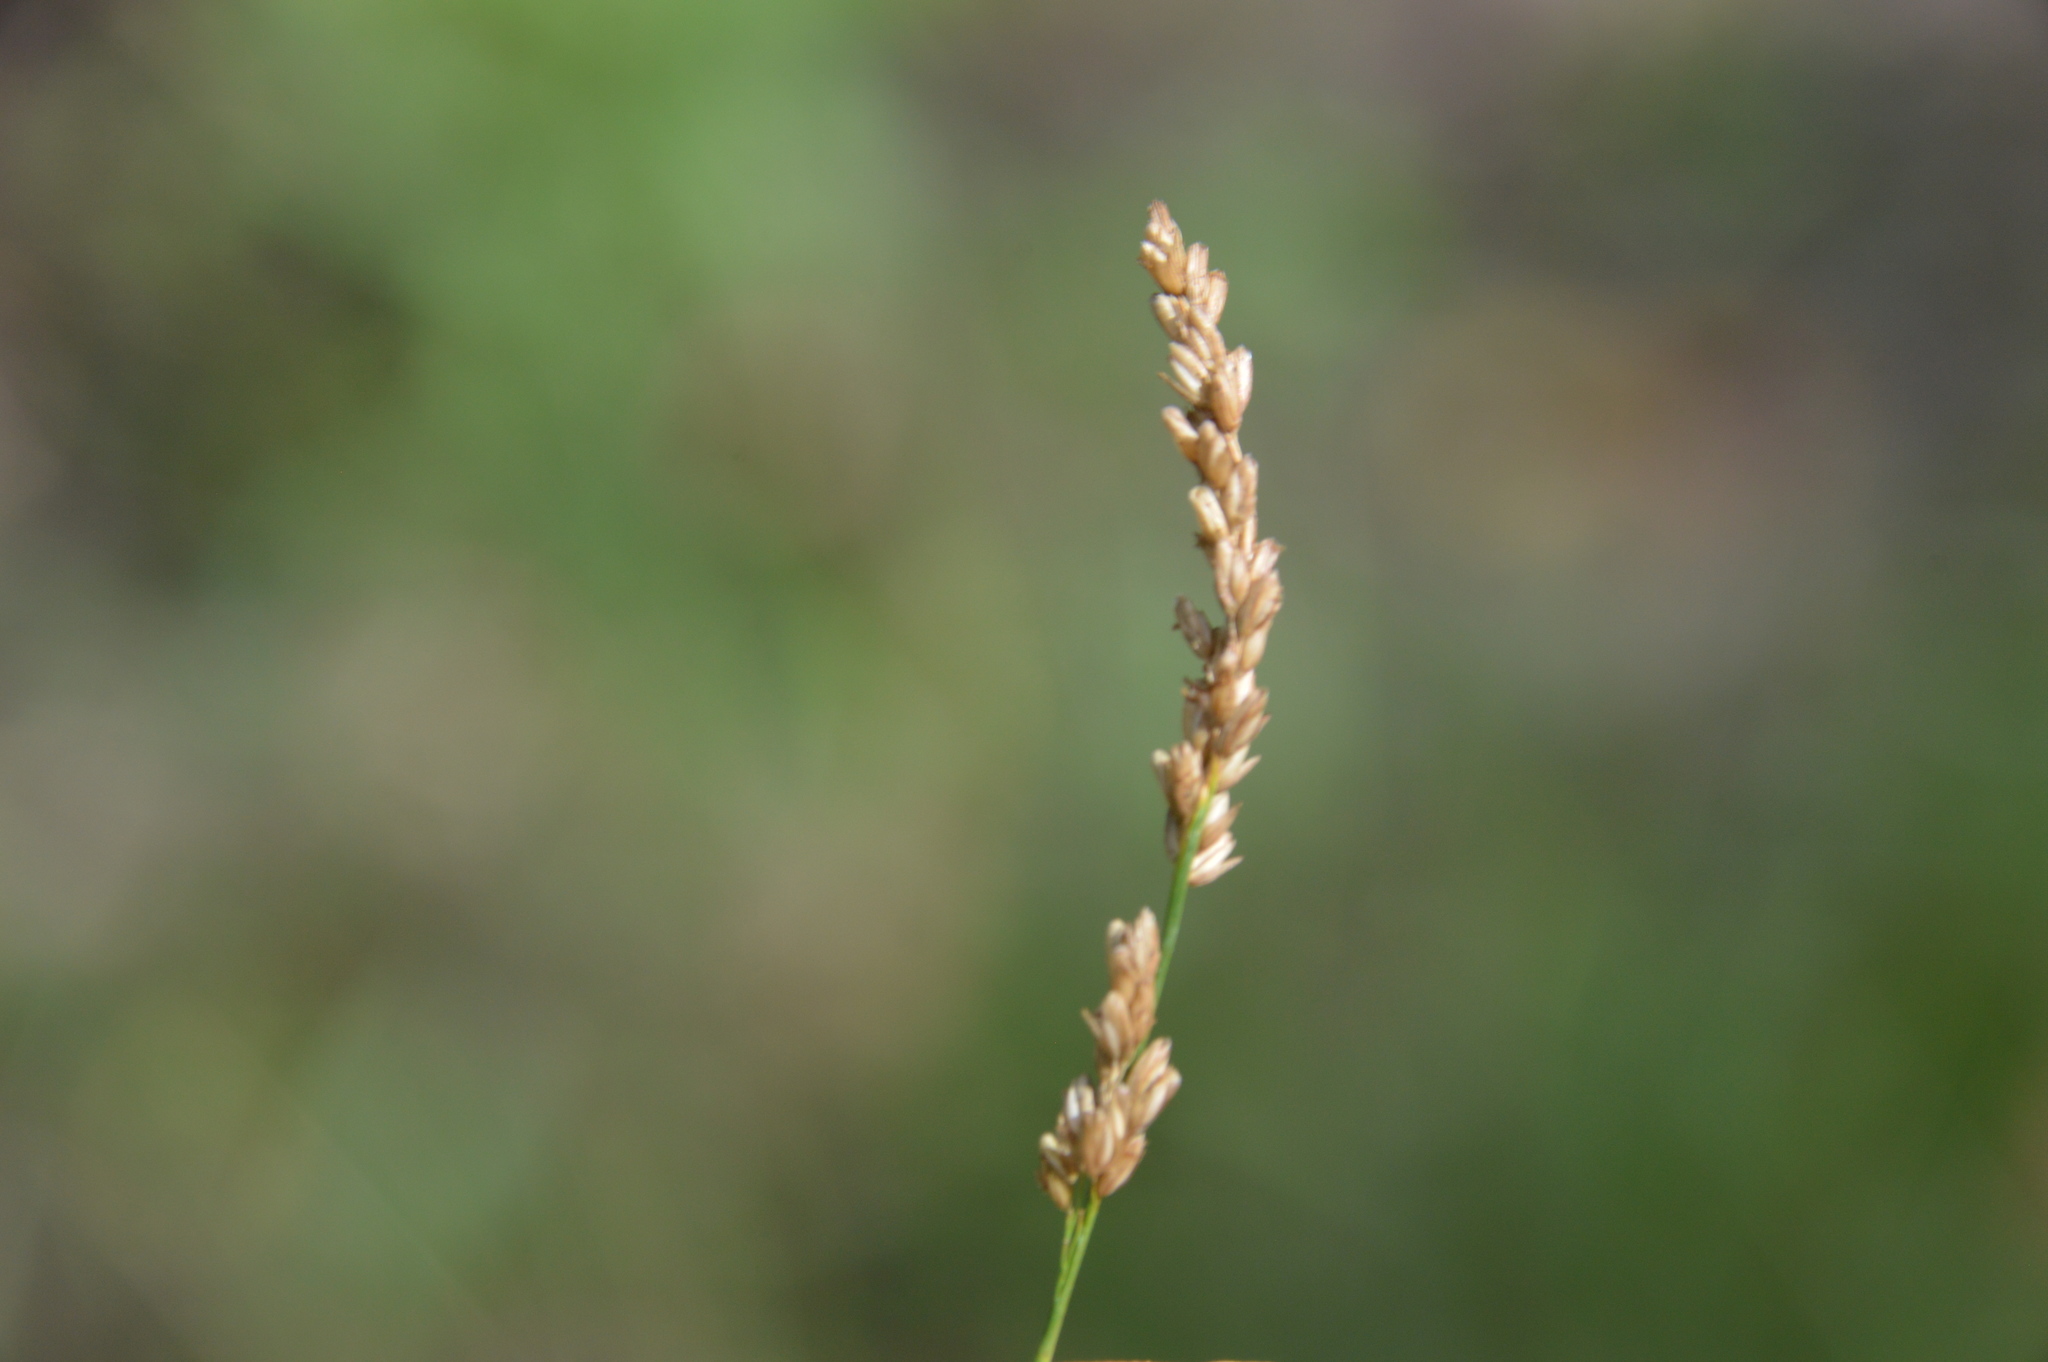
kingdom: Plantae
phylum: Tracheophyta
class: Liliopsida
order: Poales
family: Poaceae
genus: Steinchisma
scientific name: Steinchisma hians
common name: Gaping panic grass
